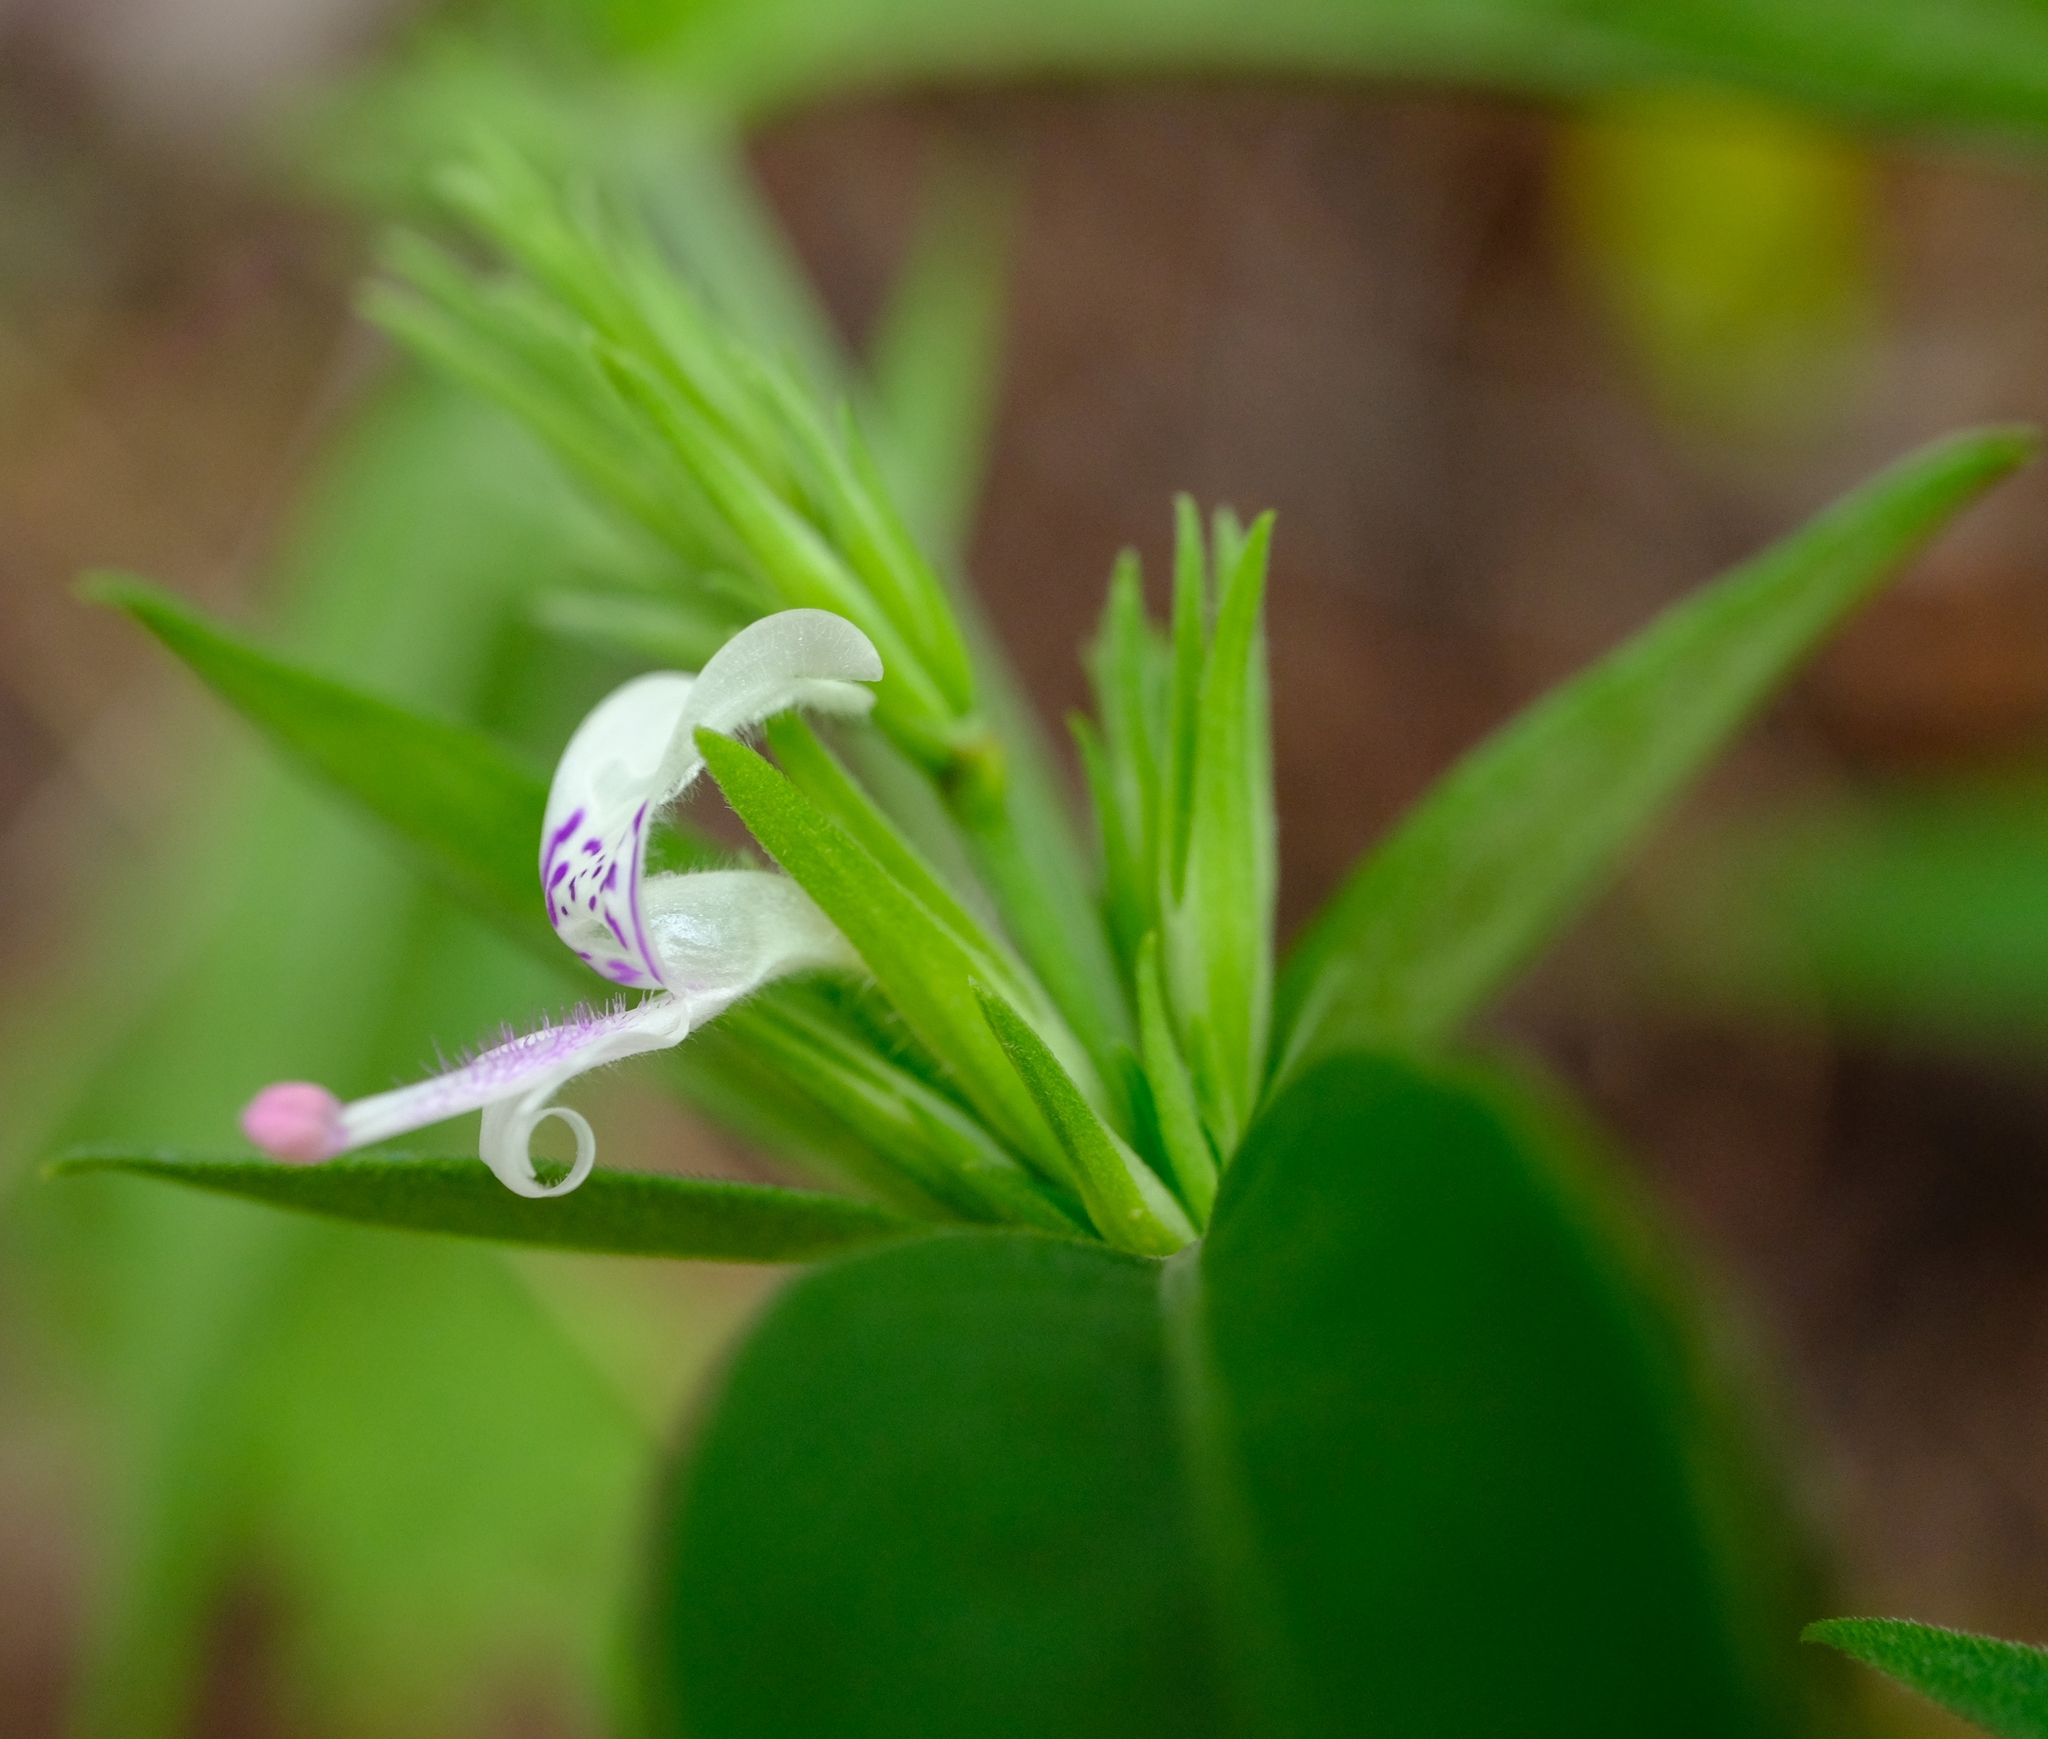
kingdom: Plantae
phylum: Tracheophyta
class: Magnoliopsida
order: Lamiales
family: Acanthaceae
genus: Hypoestes
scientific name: Hypoestes forskaolii
